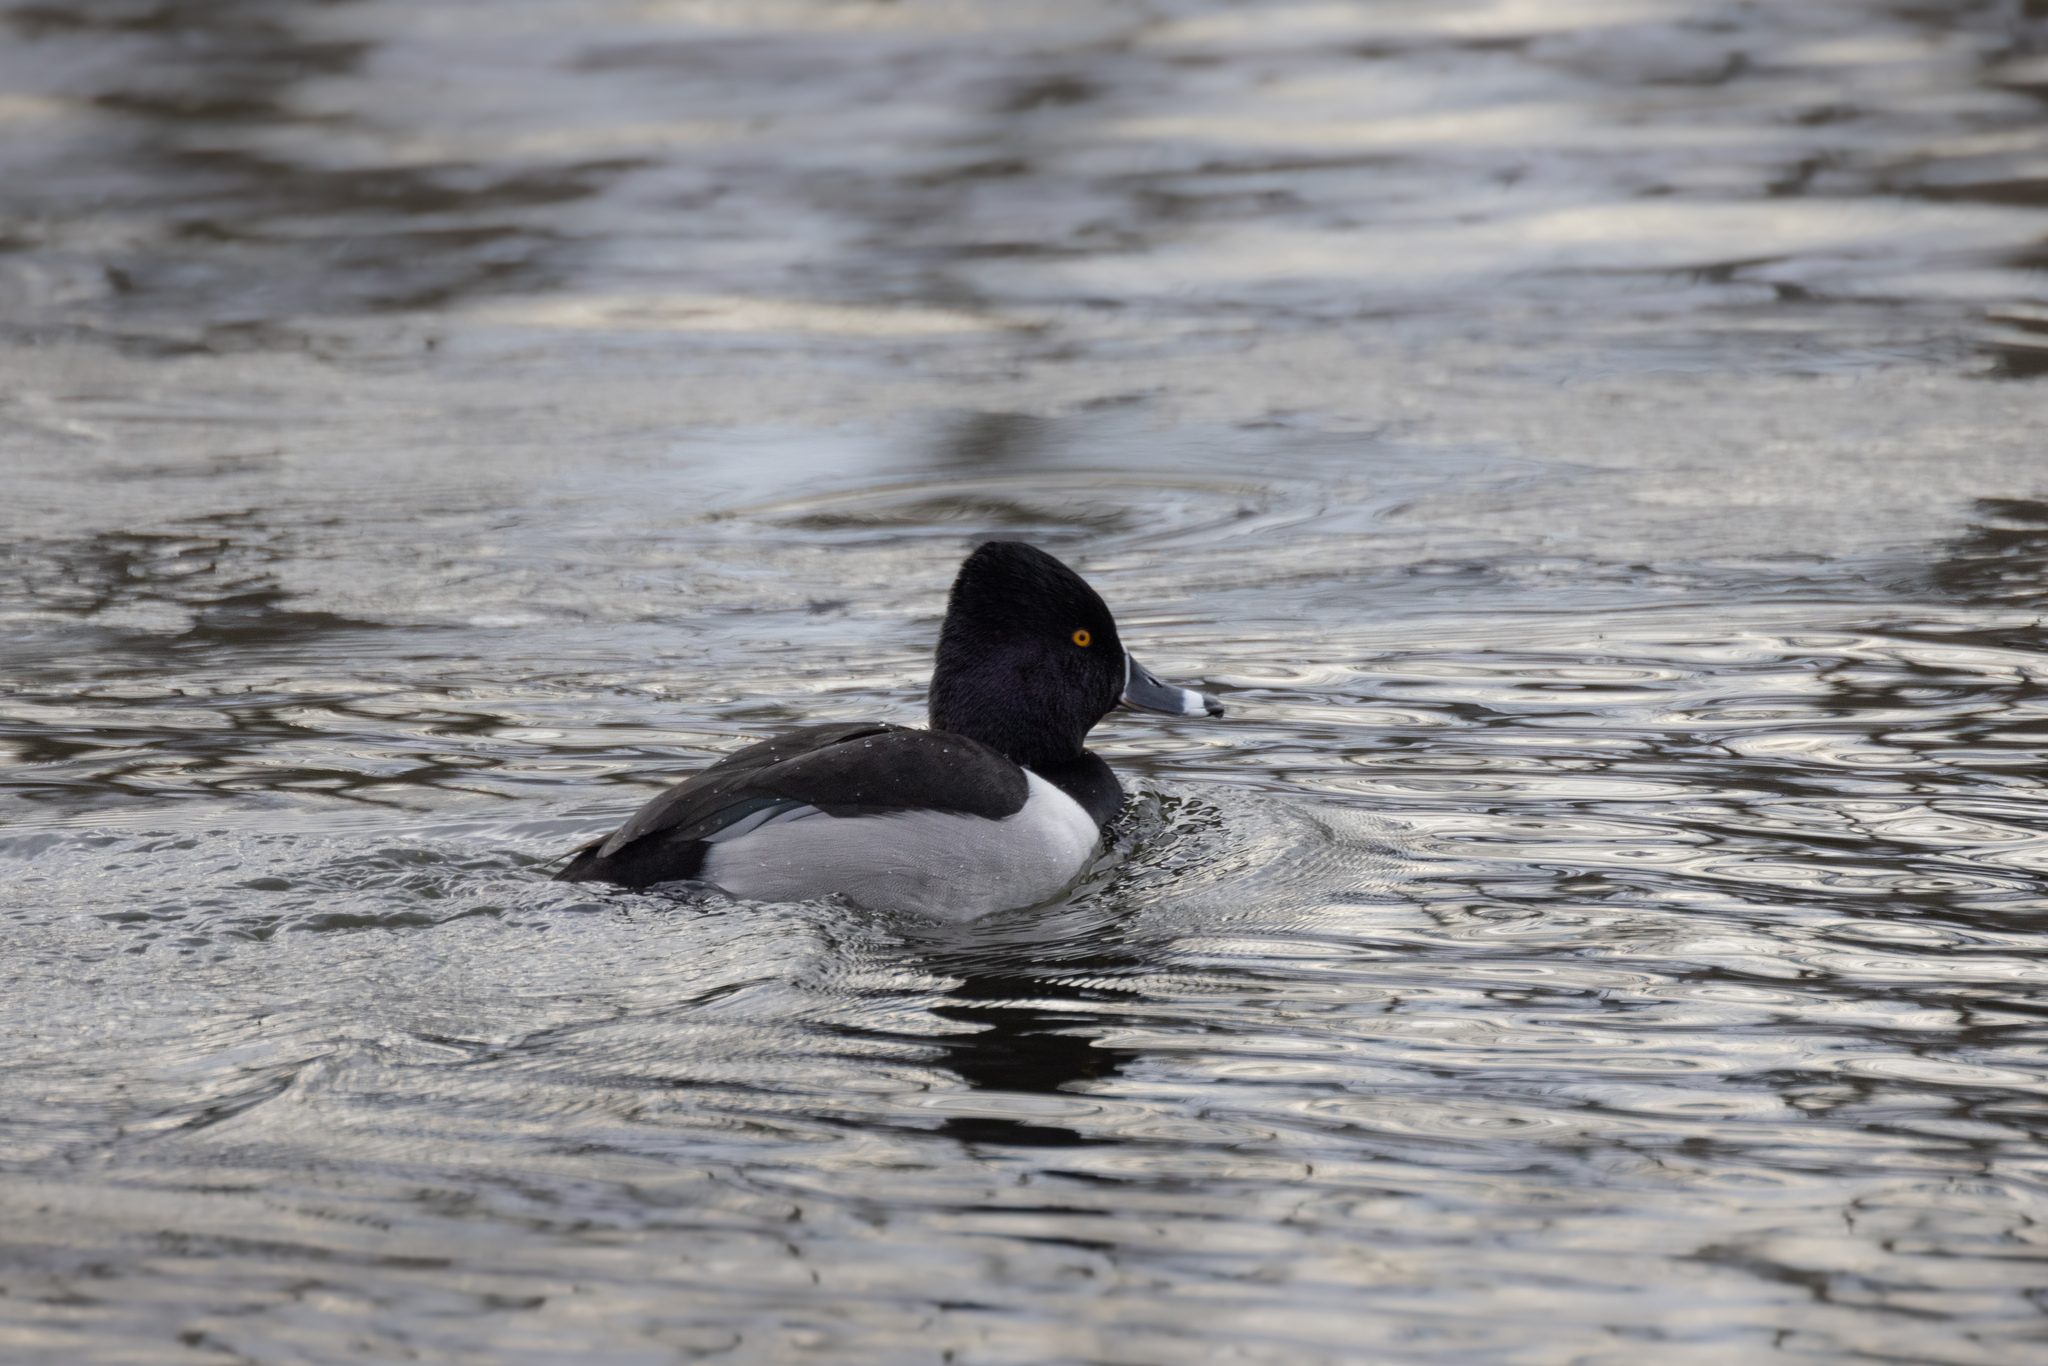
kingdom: Animalia
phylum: Chordata
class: Aves
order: Anseriformes
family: Anatidae
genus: Aythya
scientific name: Aythya collaris
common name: Ring-necked duck
